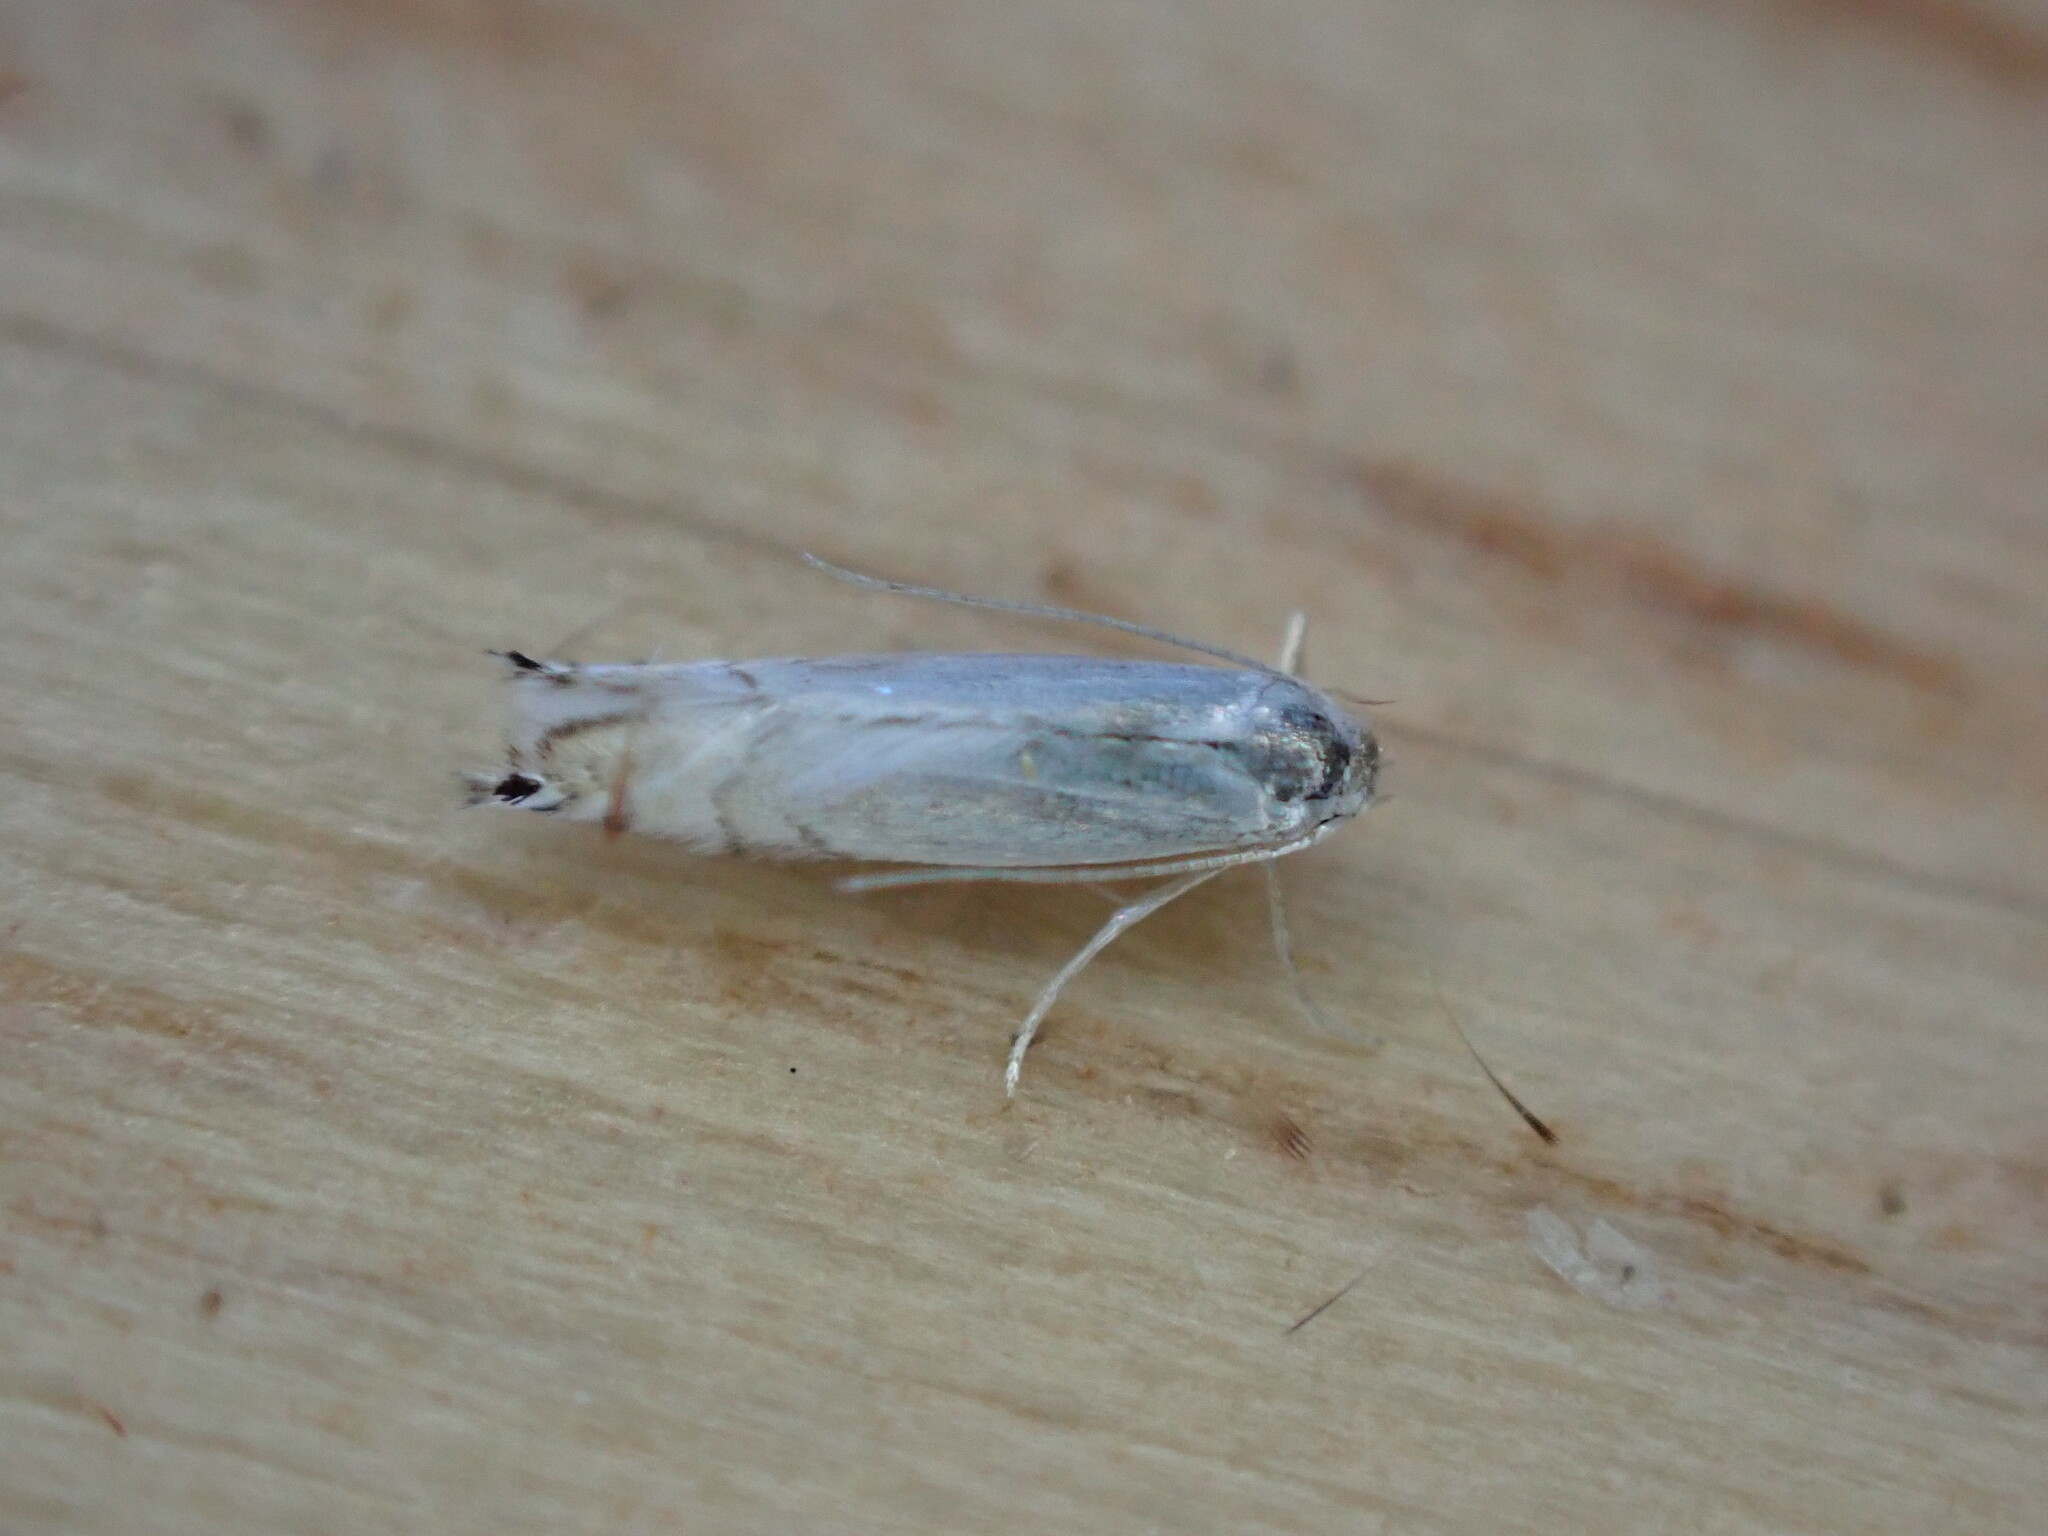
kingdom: Animalia
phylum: Arthropoda
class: Insecta
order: Lepidoptera
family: Gracillariidae
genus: Phyllocnistis
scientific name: Phyllocnistis
